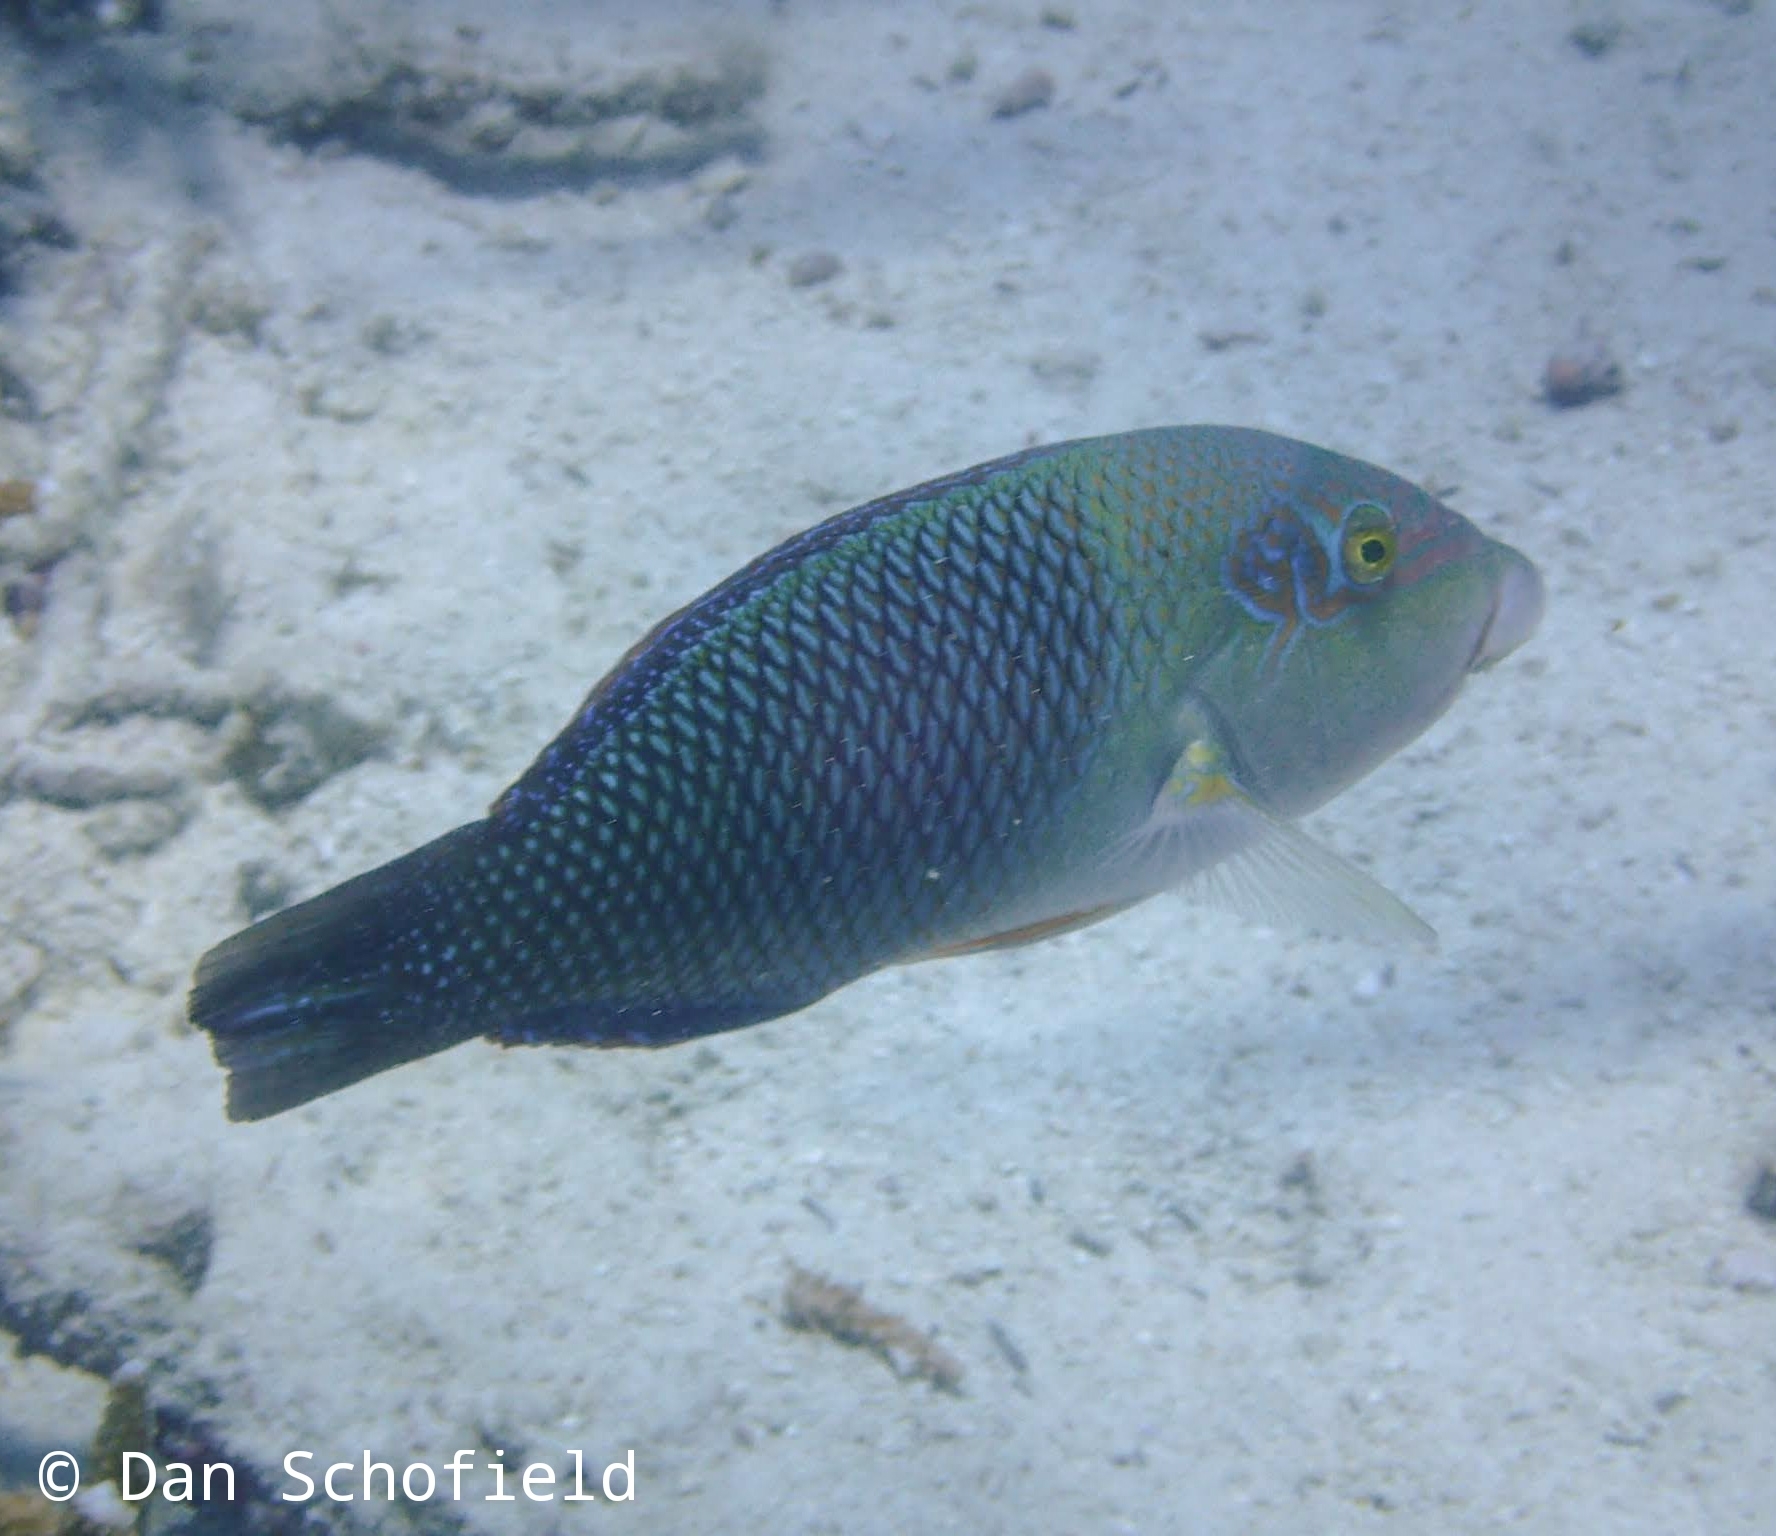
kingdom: Animalia
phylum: Chordata
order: Perciformes
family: Labridae
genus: Hemigymnus
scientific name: Hemigymnus melapterus
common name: Blackeye thicklip
